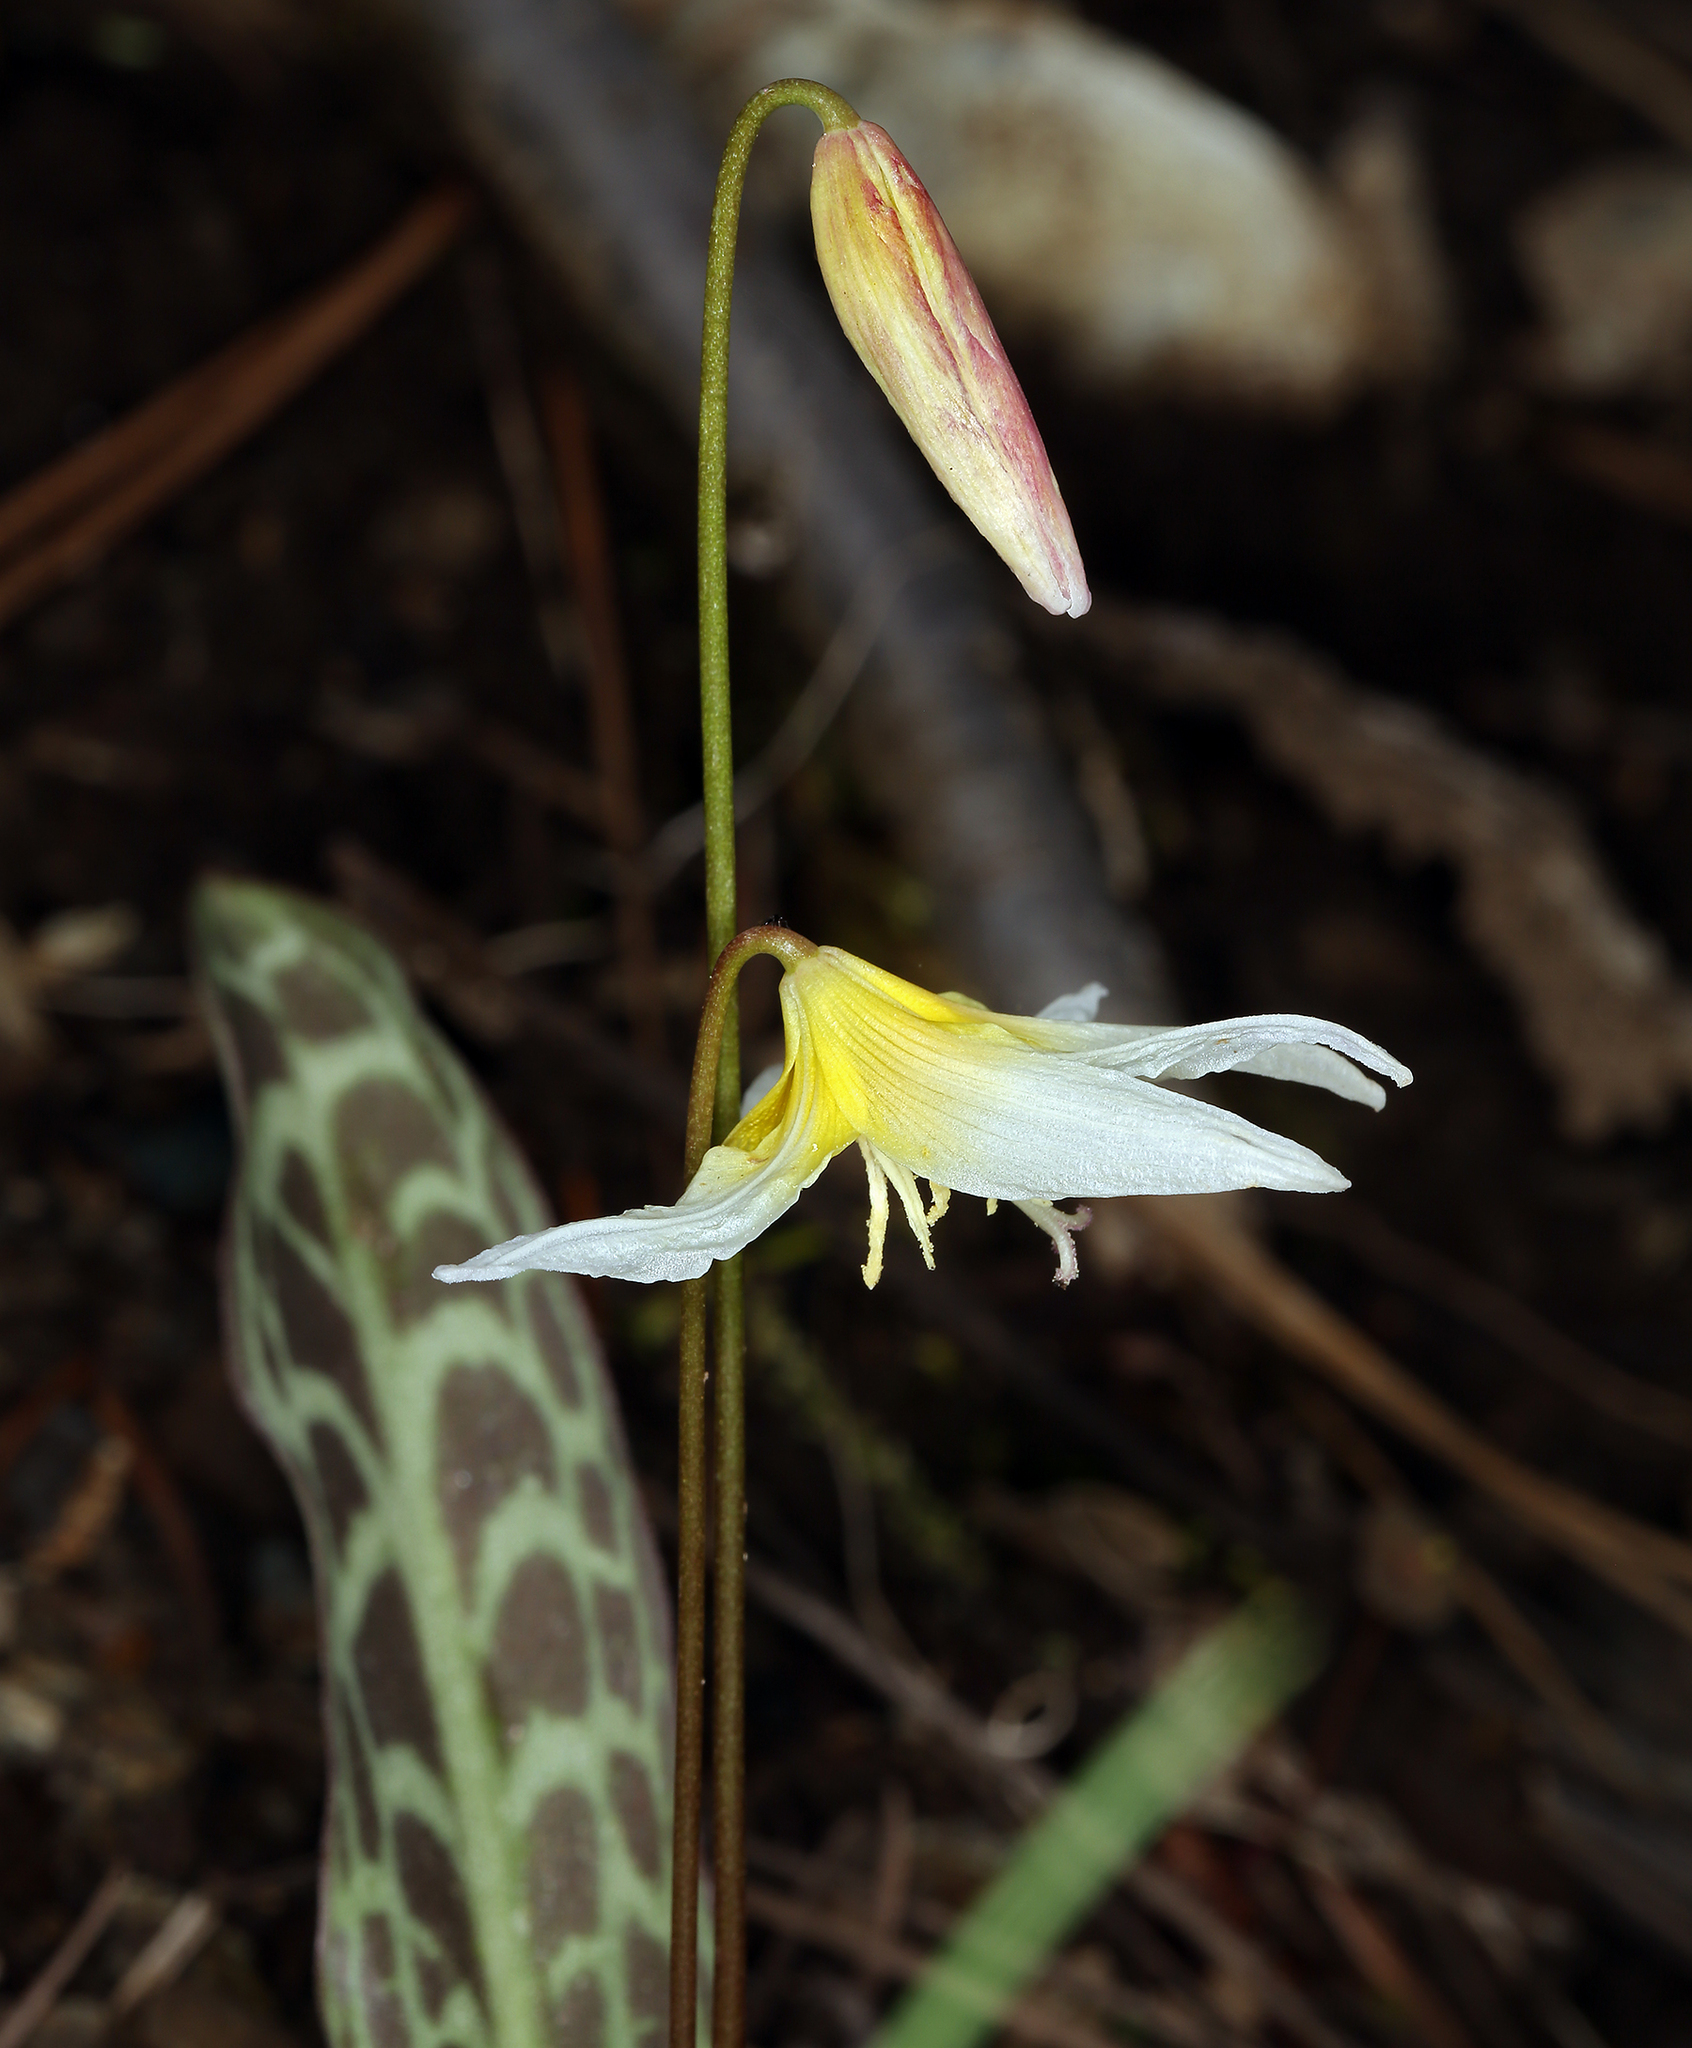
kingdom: Plantae
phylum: Tracheophyta
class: Liliopsida
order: Liliales
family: Liliaceae
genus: Erythronium
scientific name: Erythronium multiscapideum
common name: Sierra foothills fawn-lily
